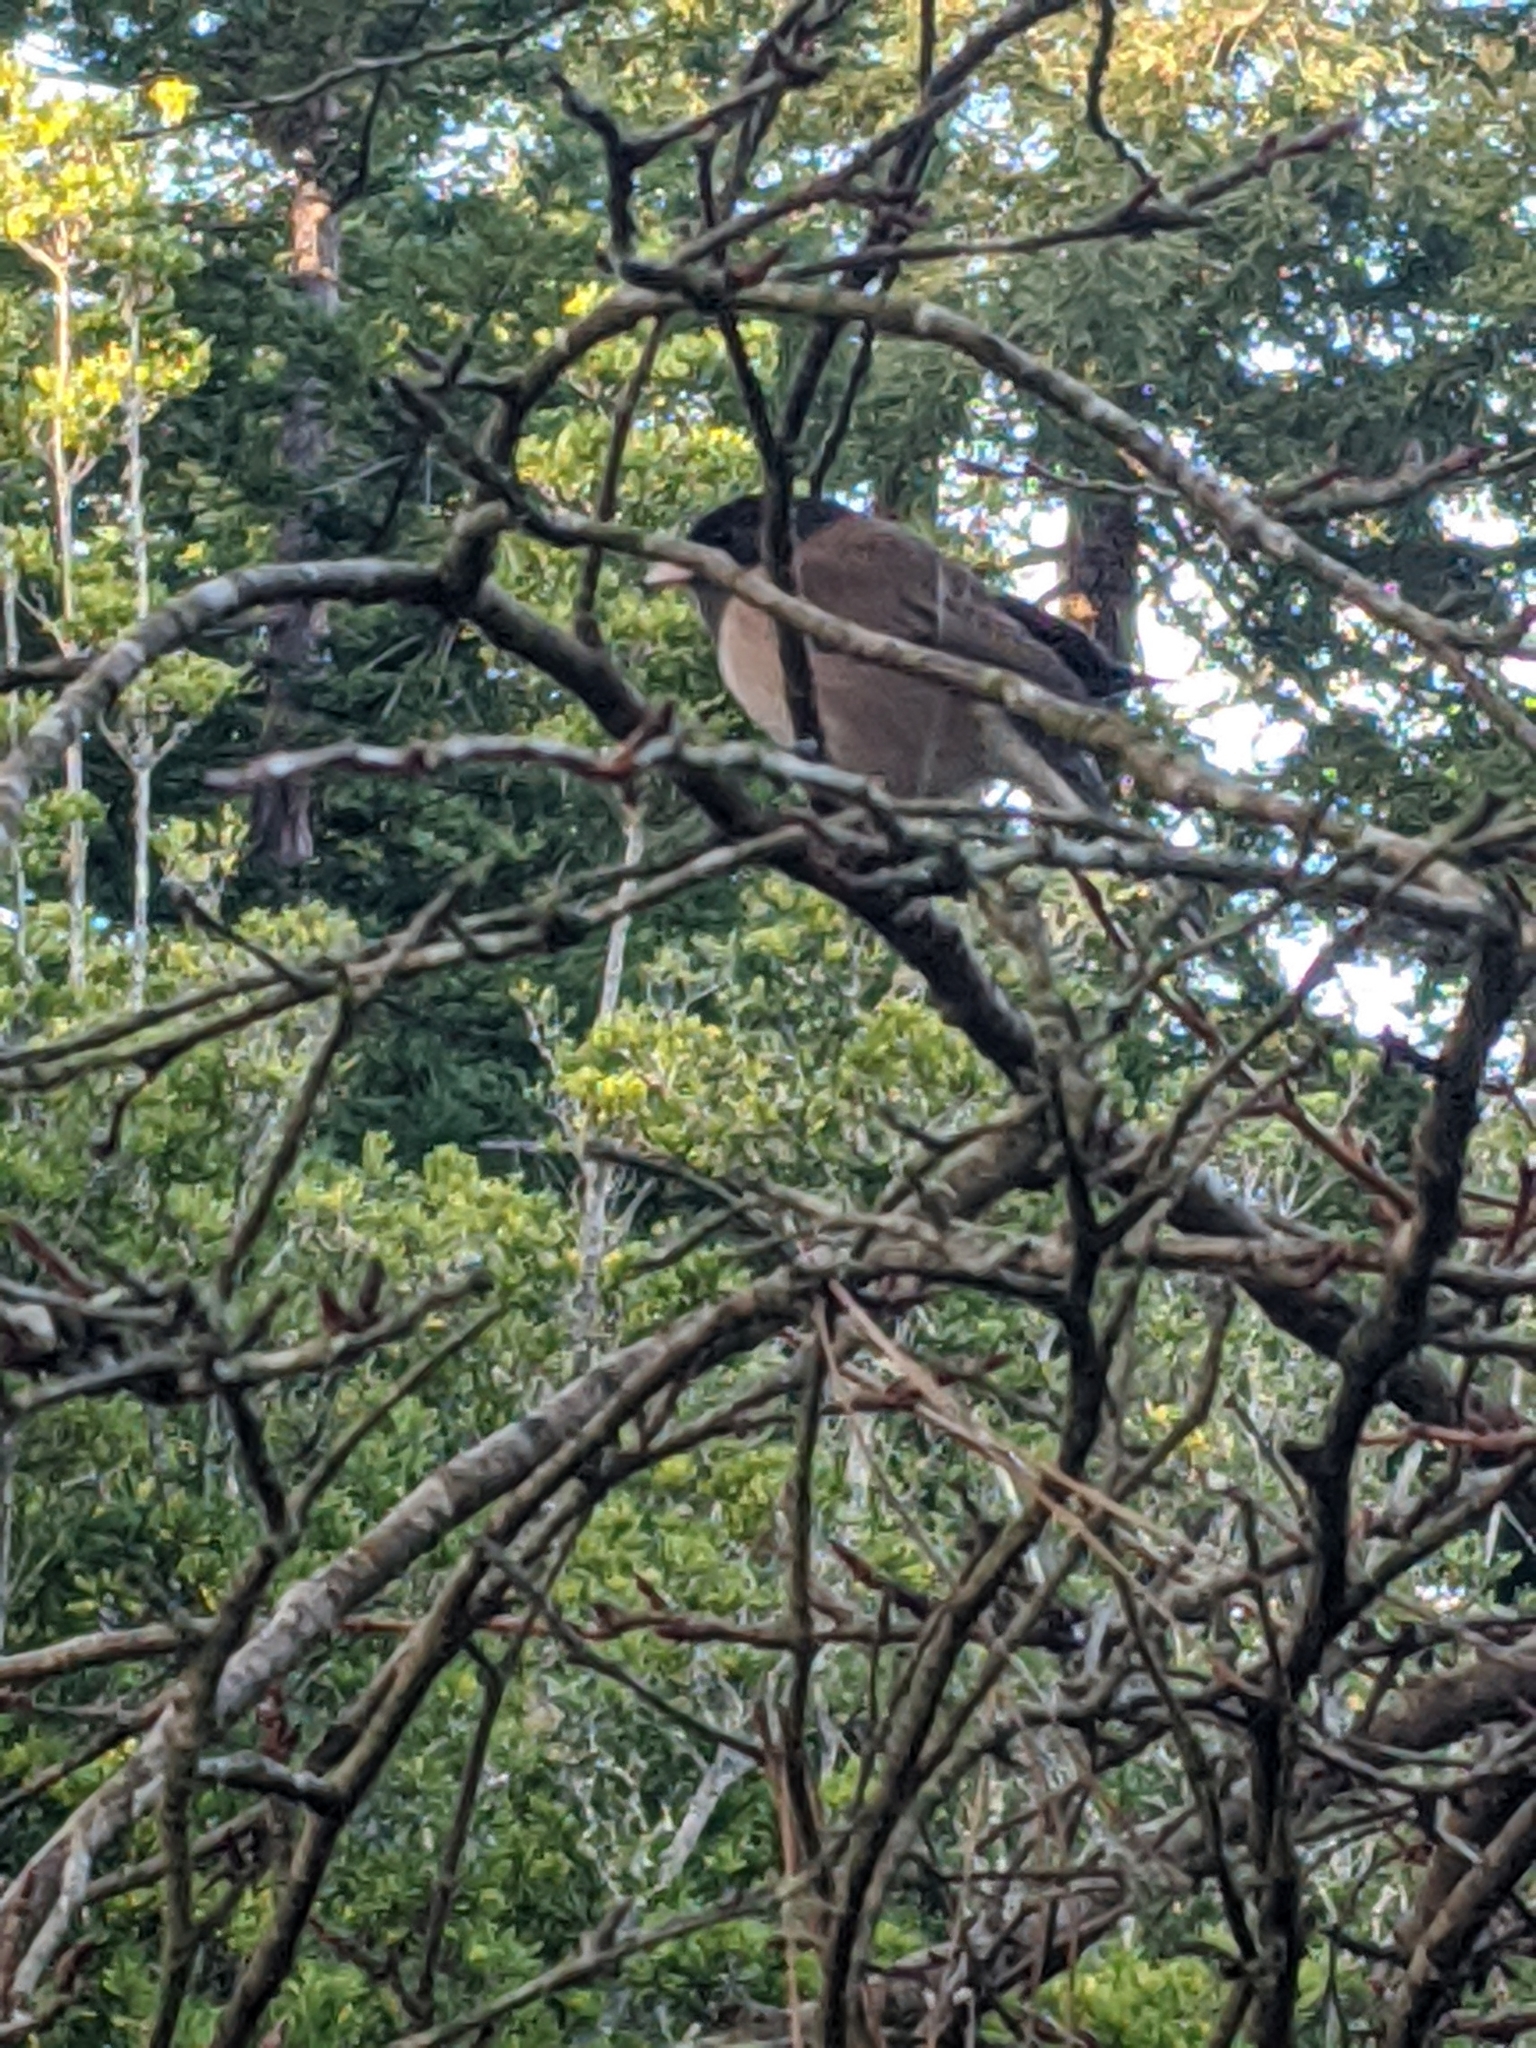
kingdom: Animalia
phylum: Chordata
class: Aves
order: Passeriformes
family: Passerellidae
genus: Junco
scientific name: Junco hyemalis
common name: Dark-eyed junco
